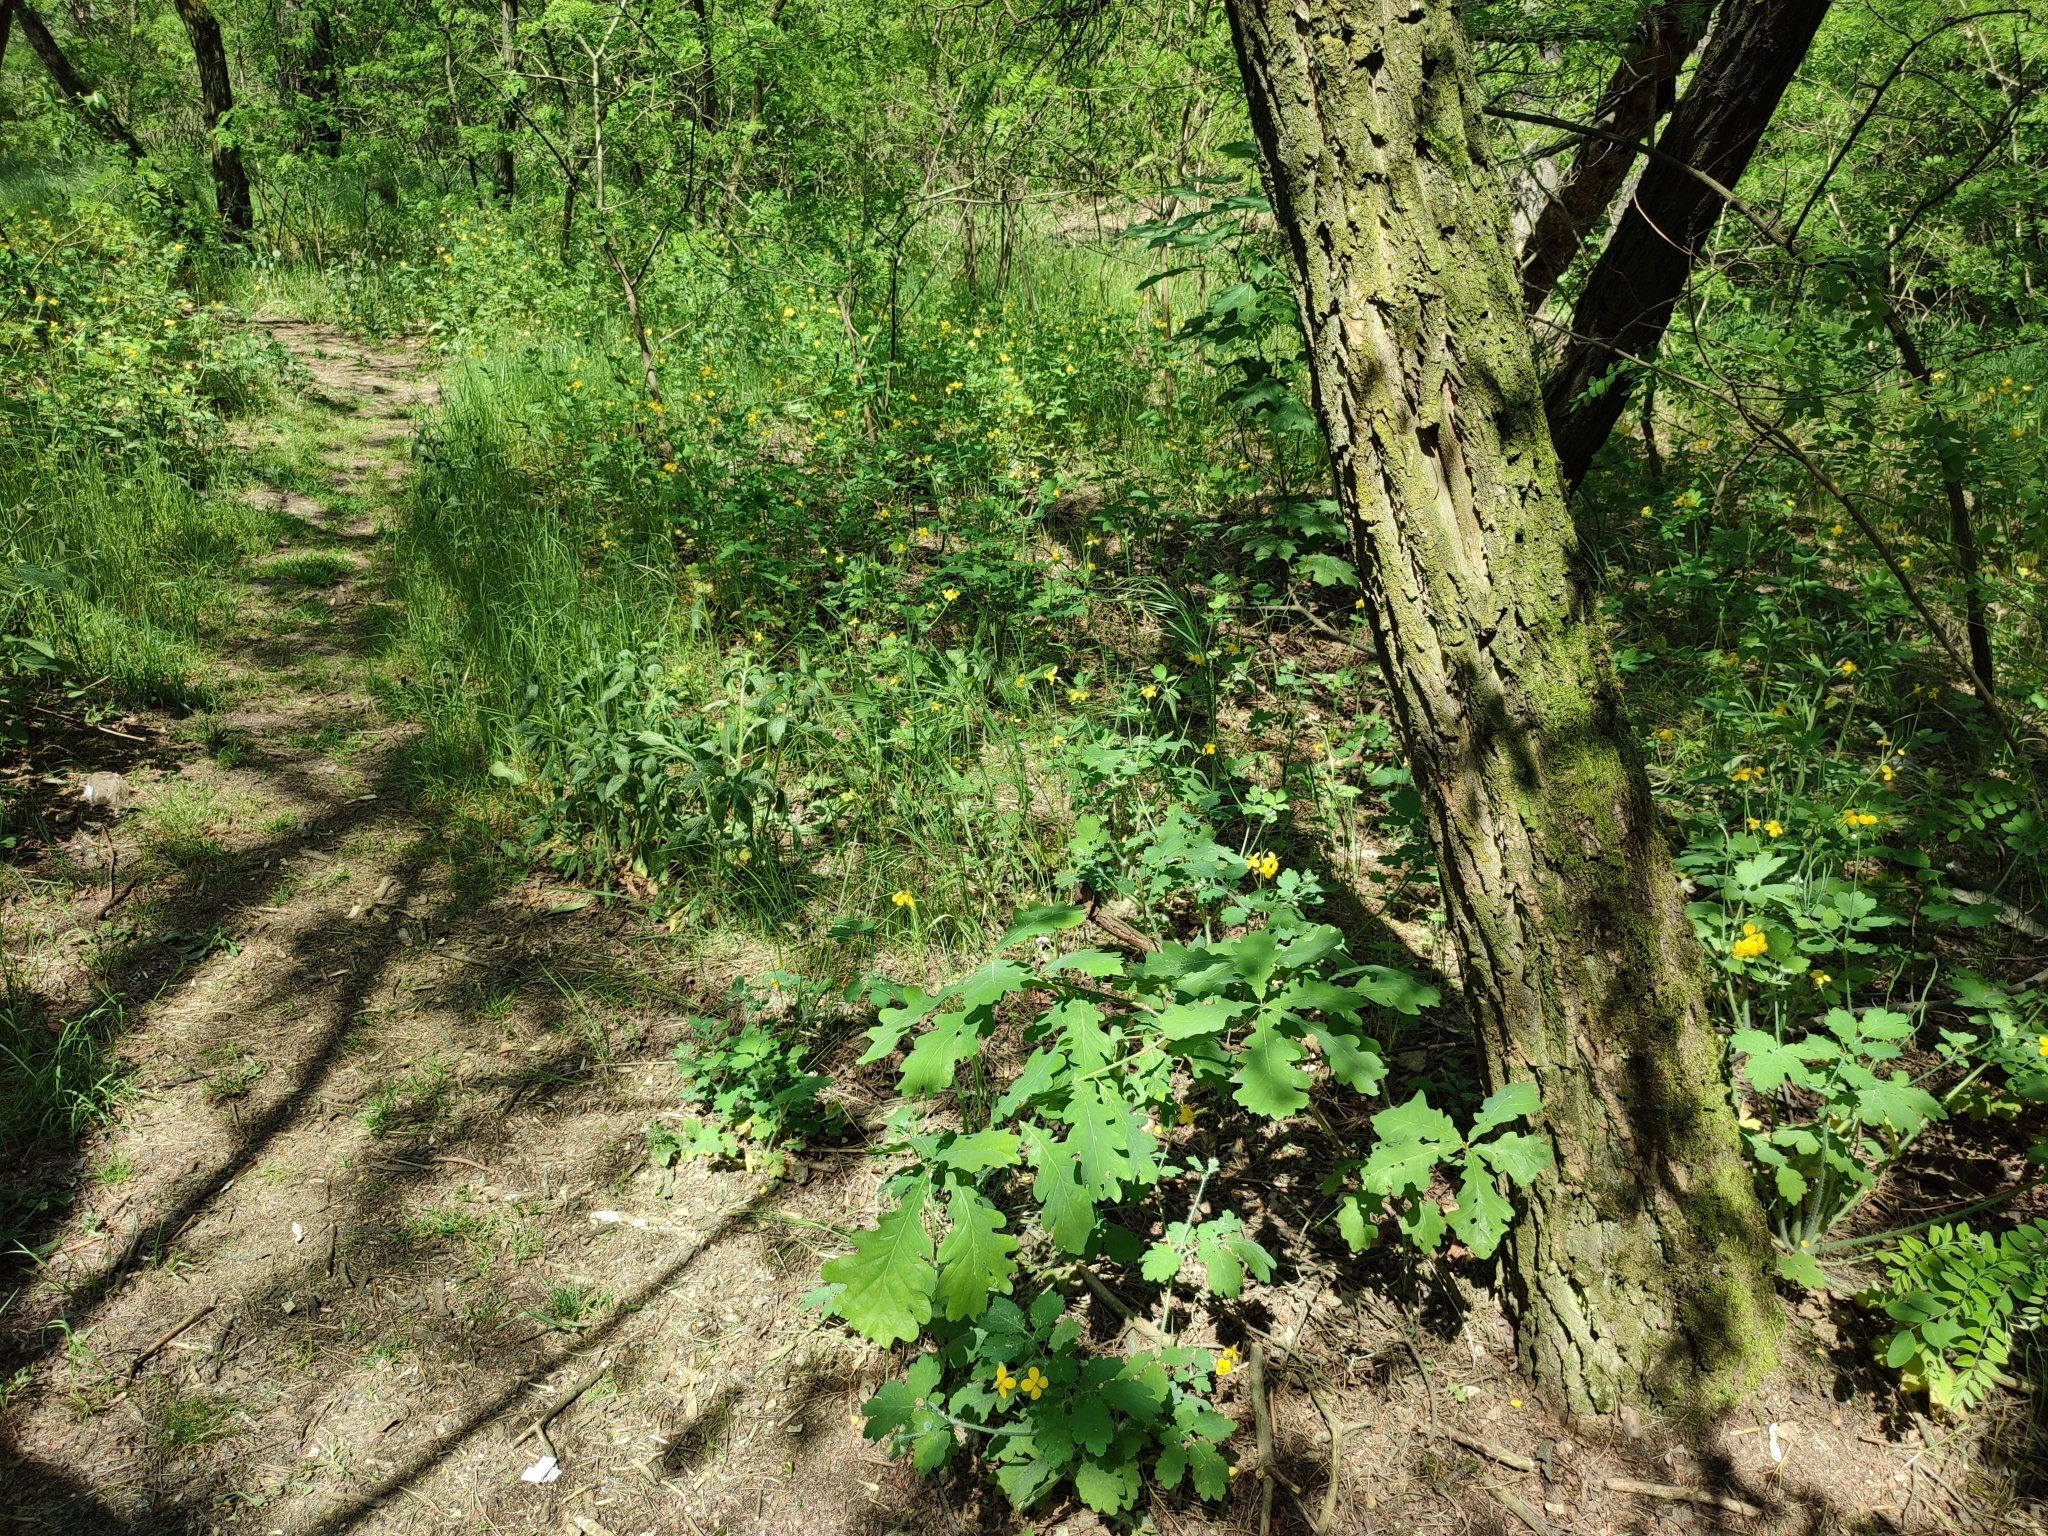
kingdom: Plantae
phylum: Tracheophyta
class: Magnoliopsida
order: Fagales
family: Fagaceae
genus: Quercus
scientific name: Quercus robur
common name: Pedunculate oak
